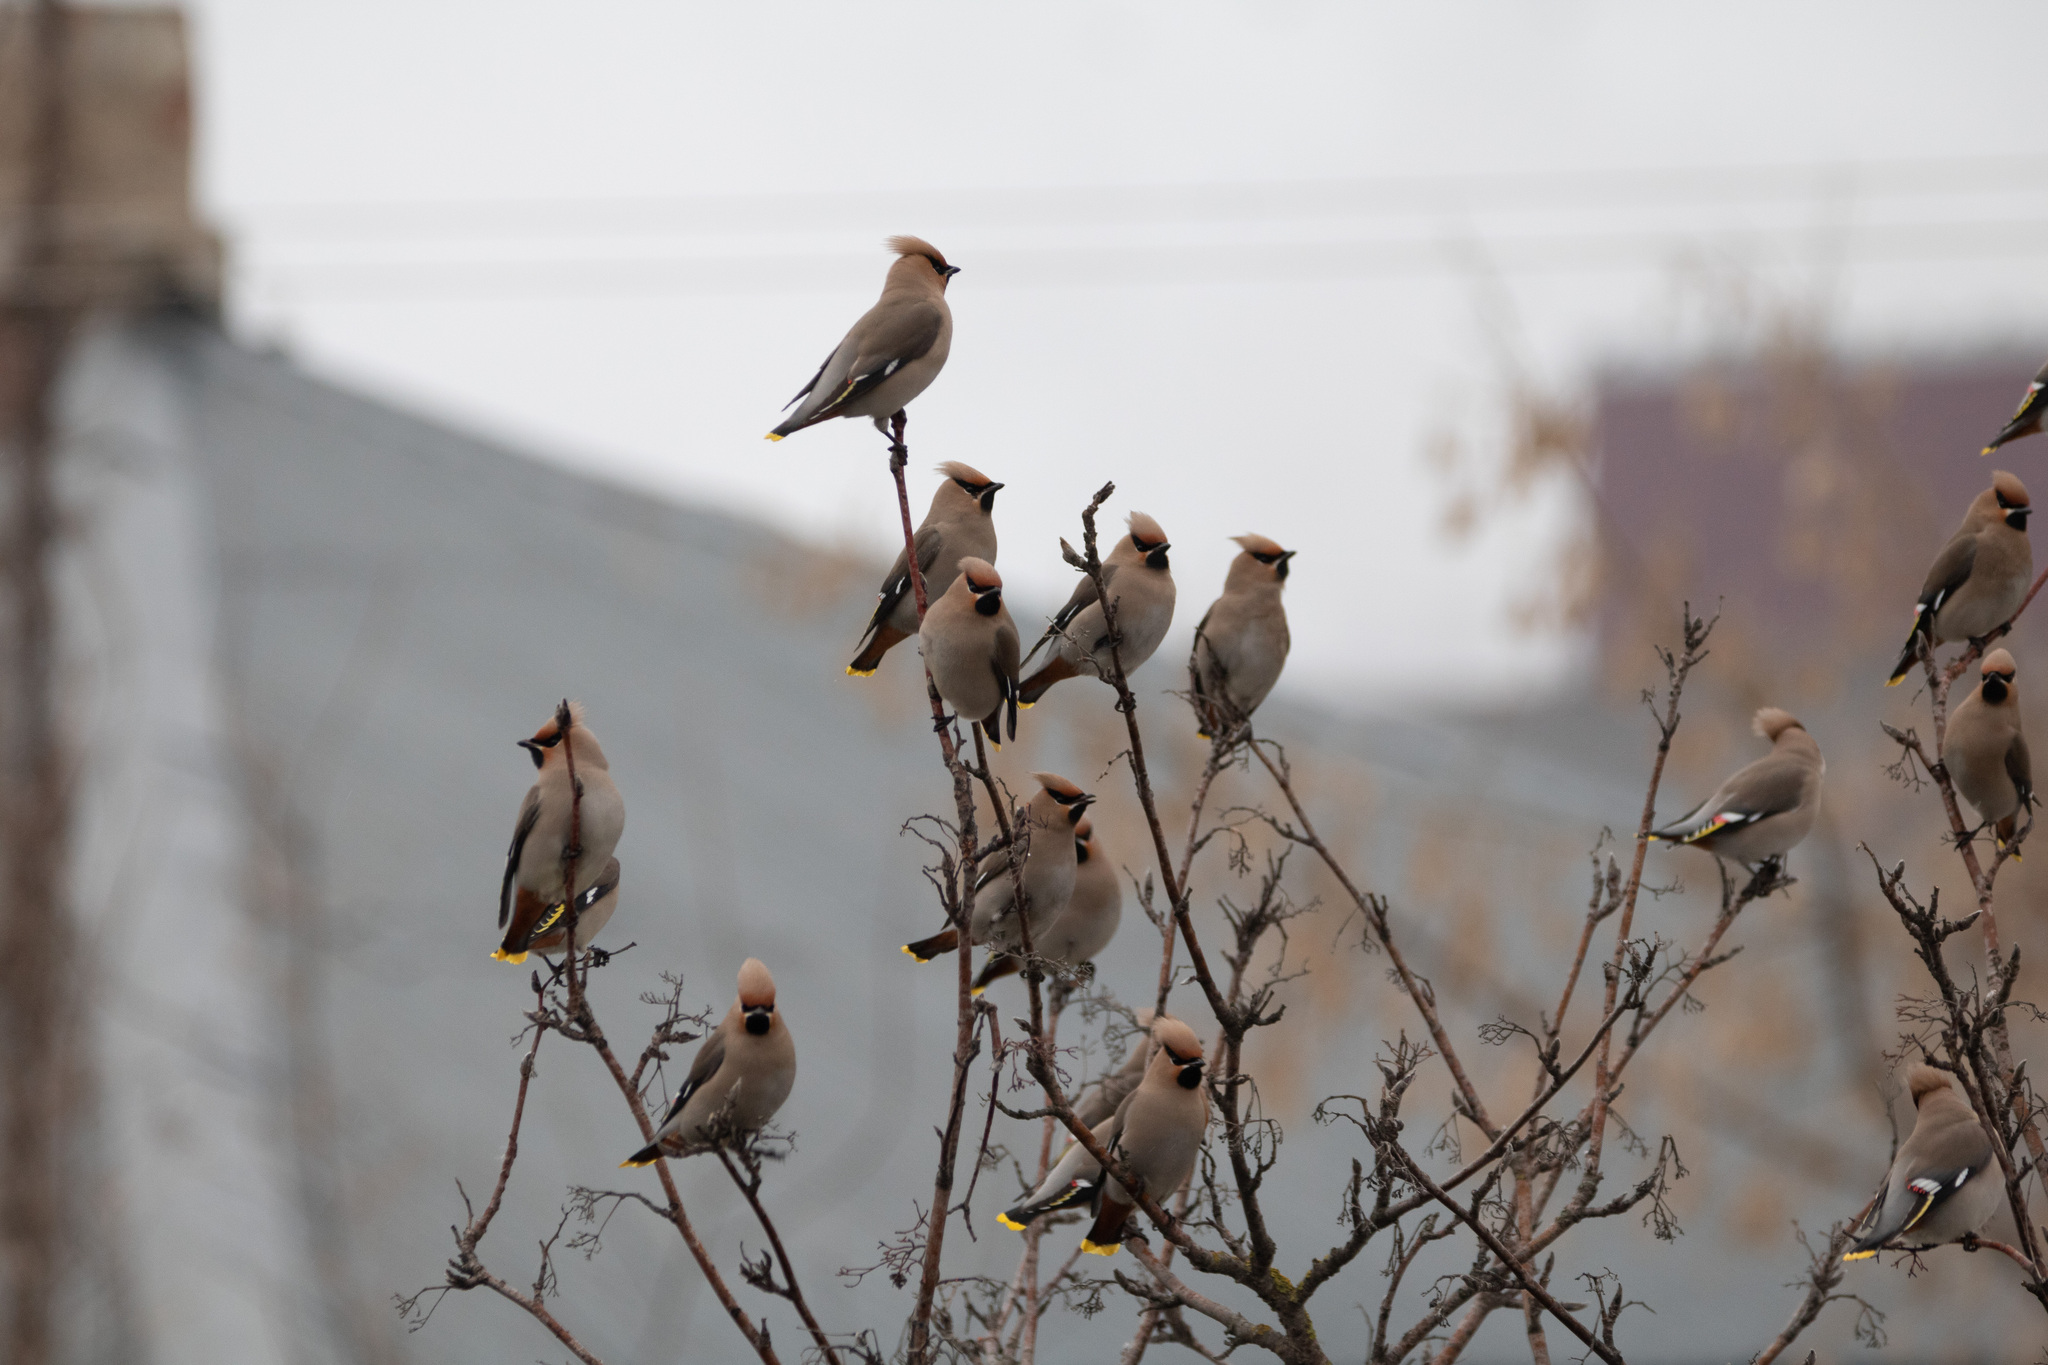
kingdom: Animalia
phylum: Chordata
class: Aves
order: Passeriformes
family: Bombycillidae
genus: Bombycilla
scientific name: Bombycilla garrulus
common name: Bohemian waxwing
